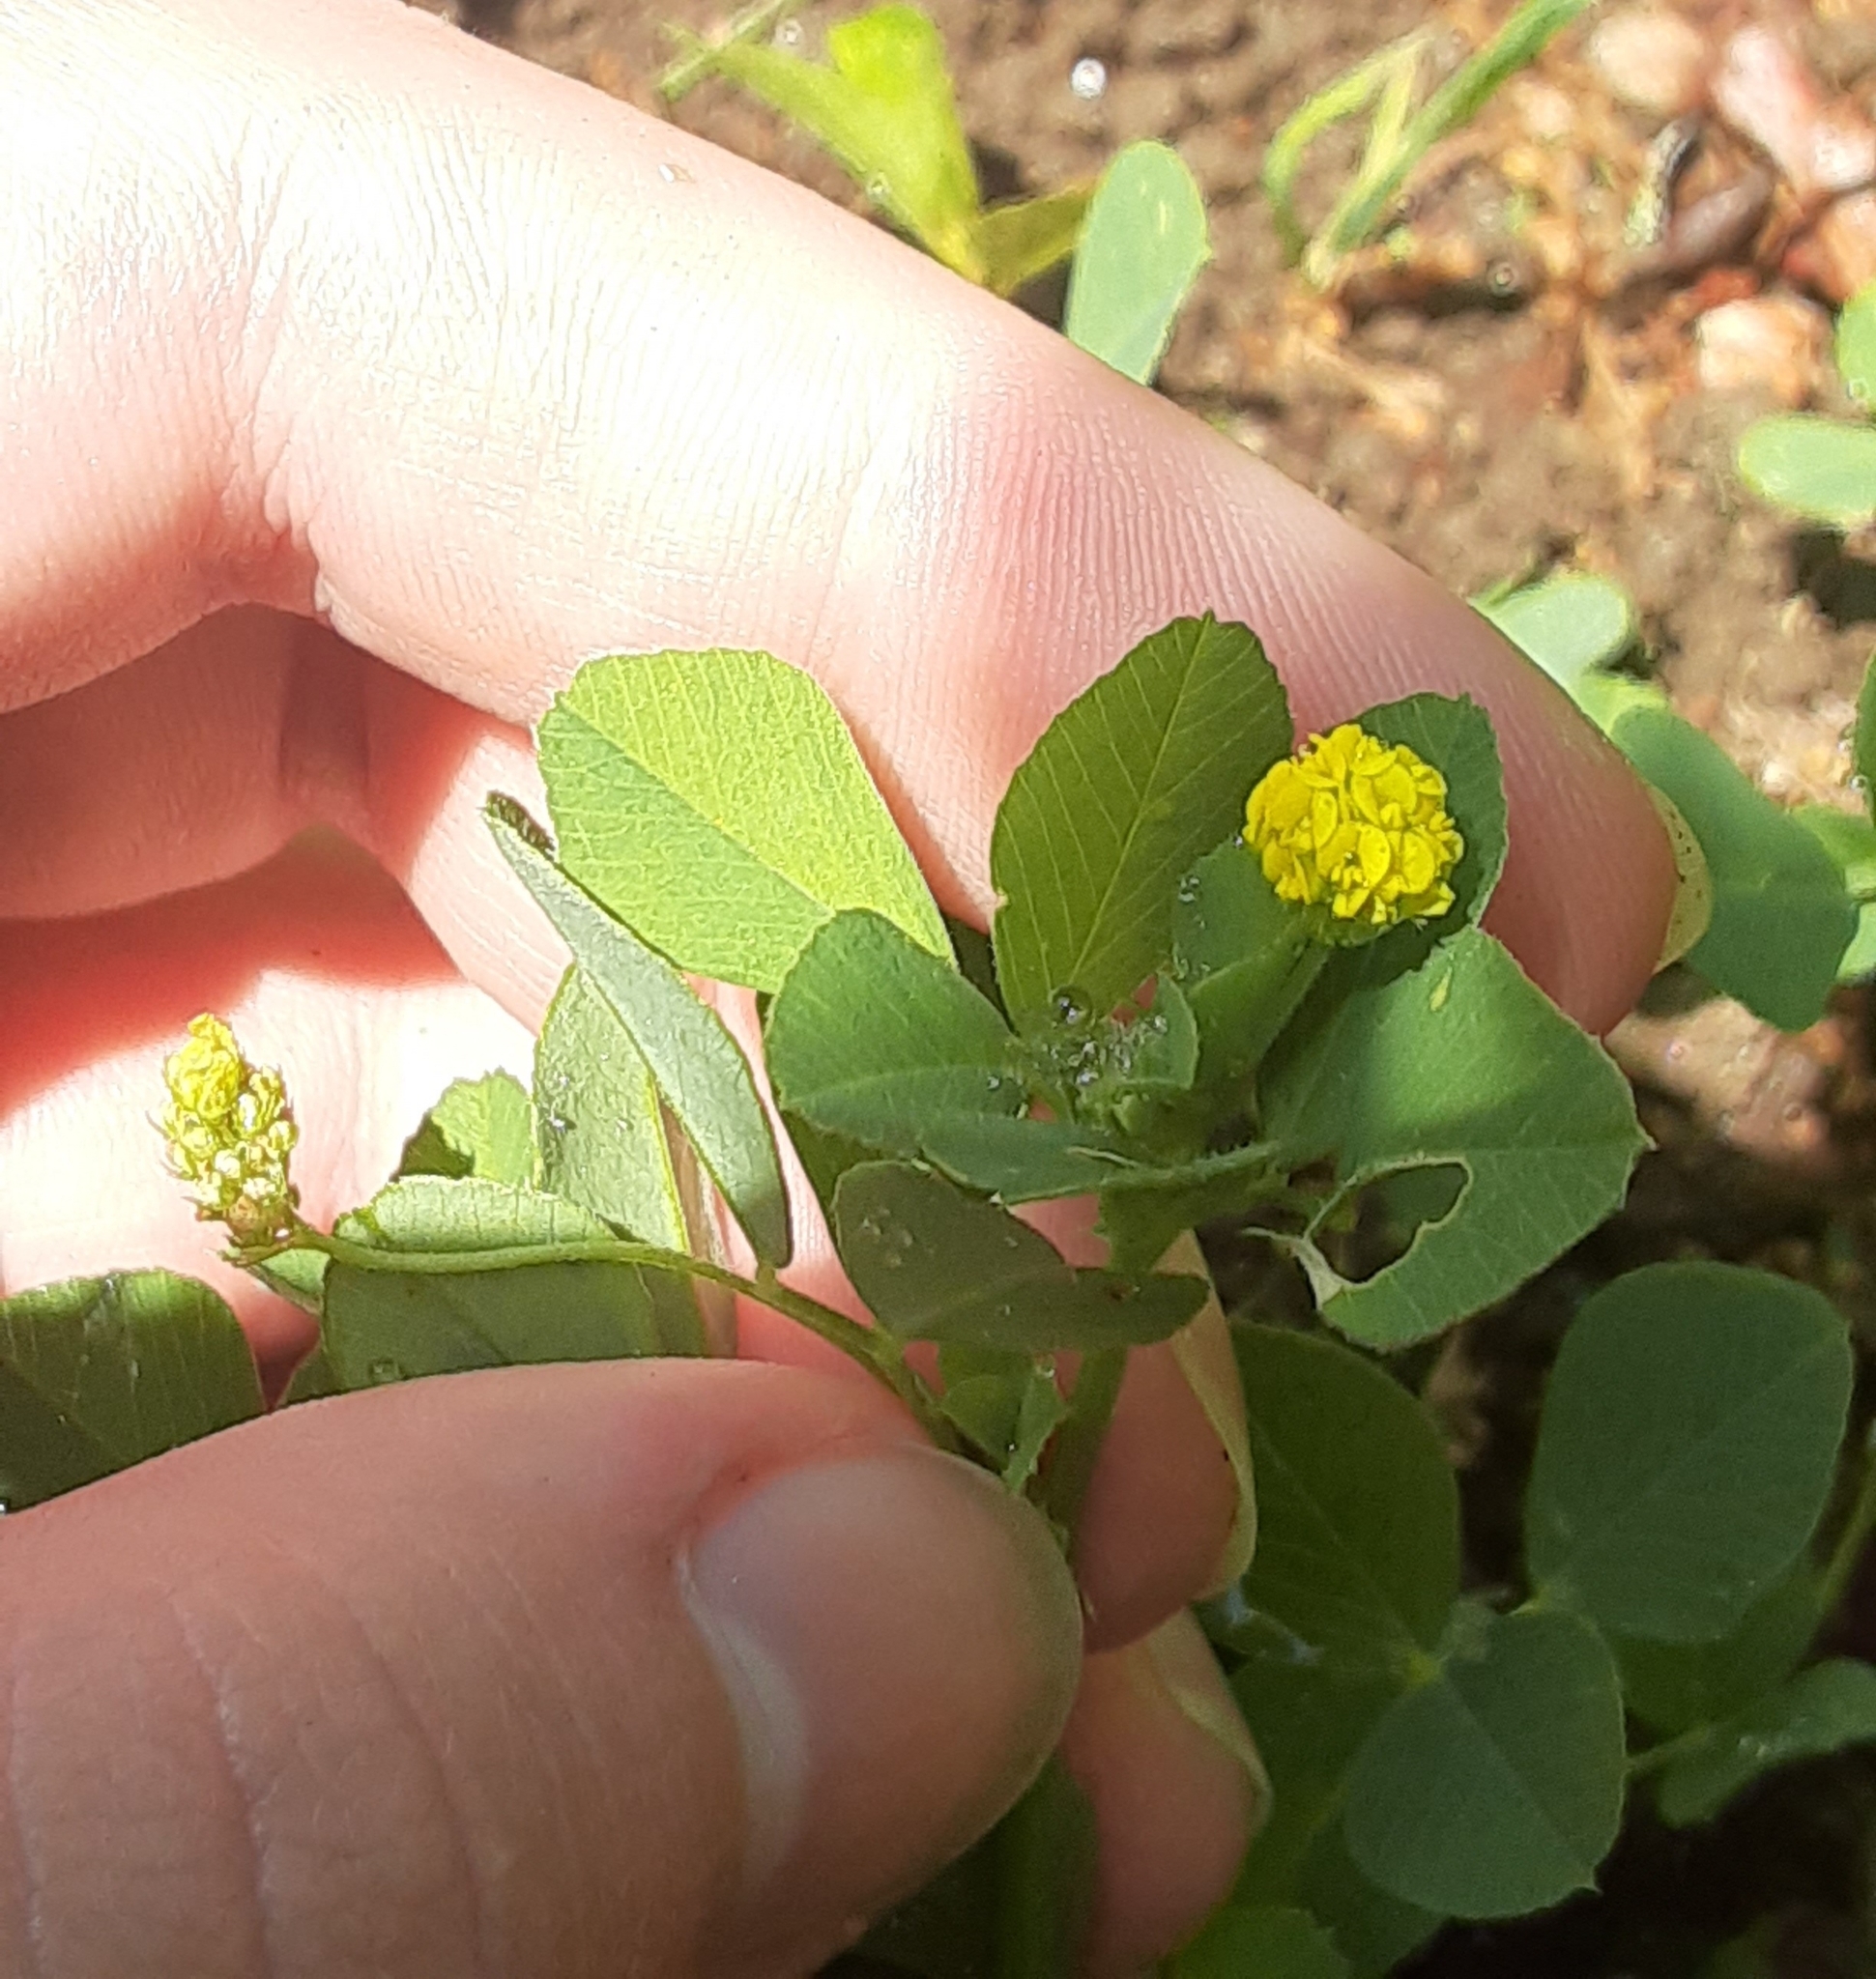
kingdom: Plantae
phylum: Tracheophyta
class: Magnoliopsida
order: Fabales
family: Fabaceae
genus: Medicago
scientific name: Medicago lupulina
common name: Black medick
